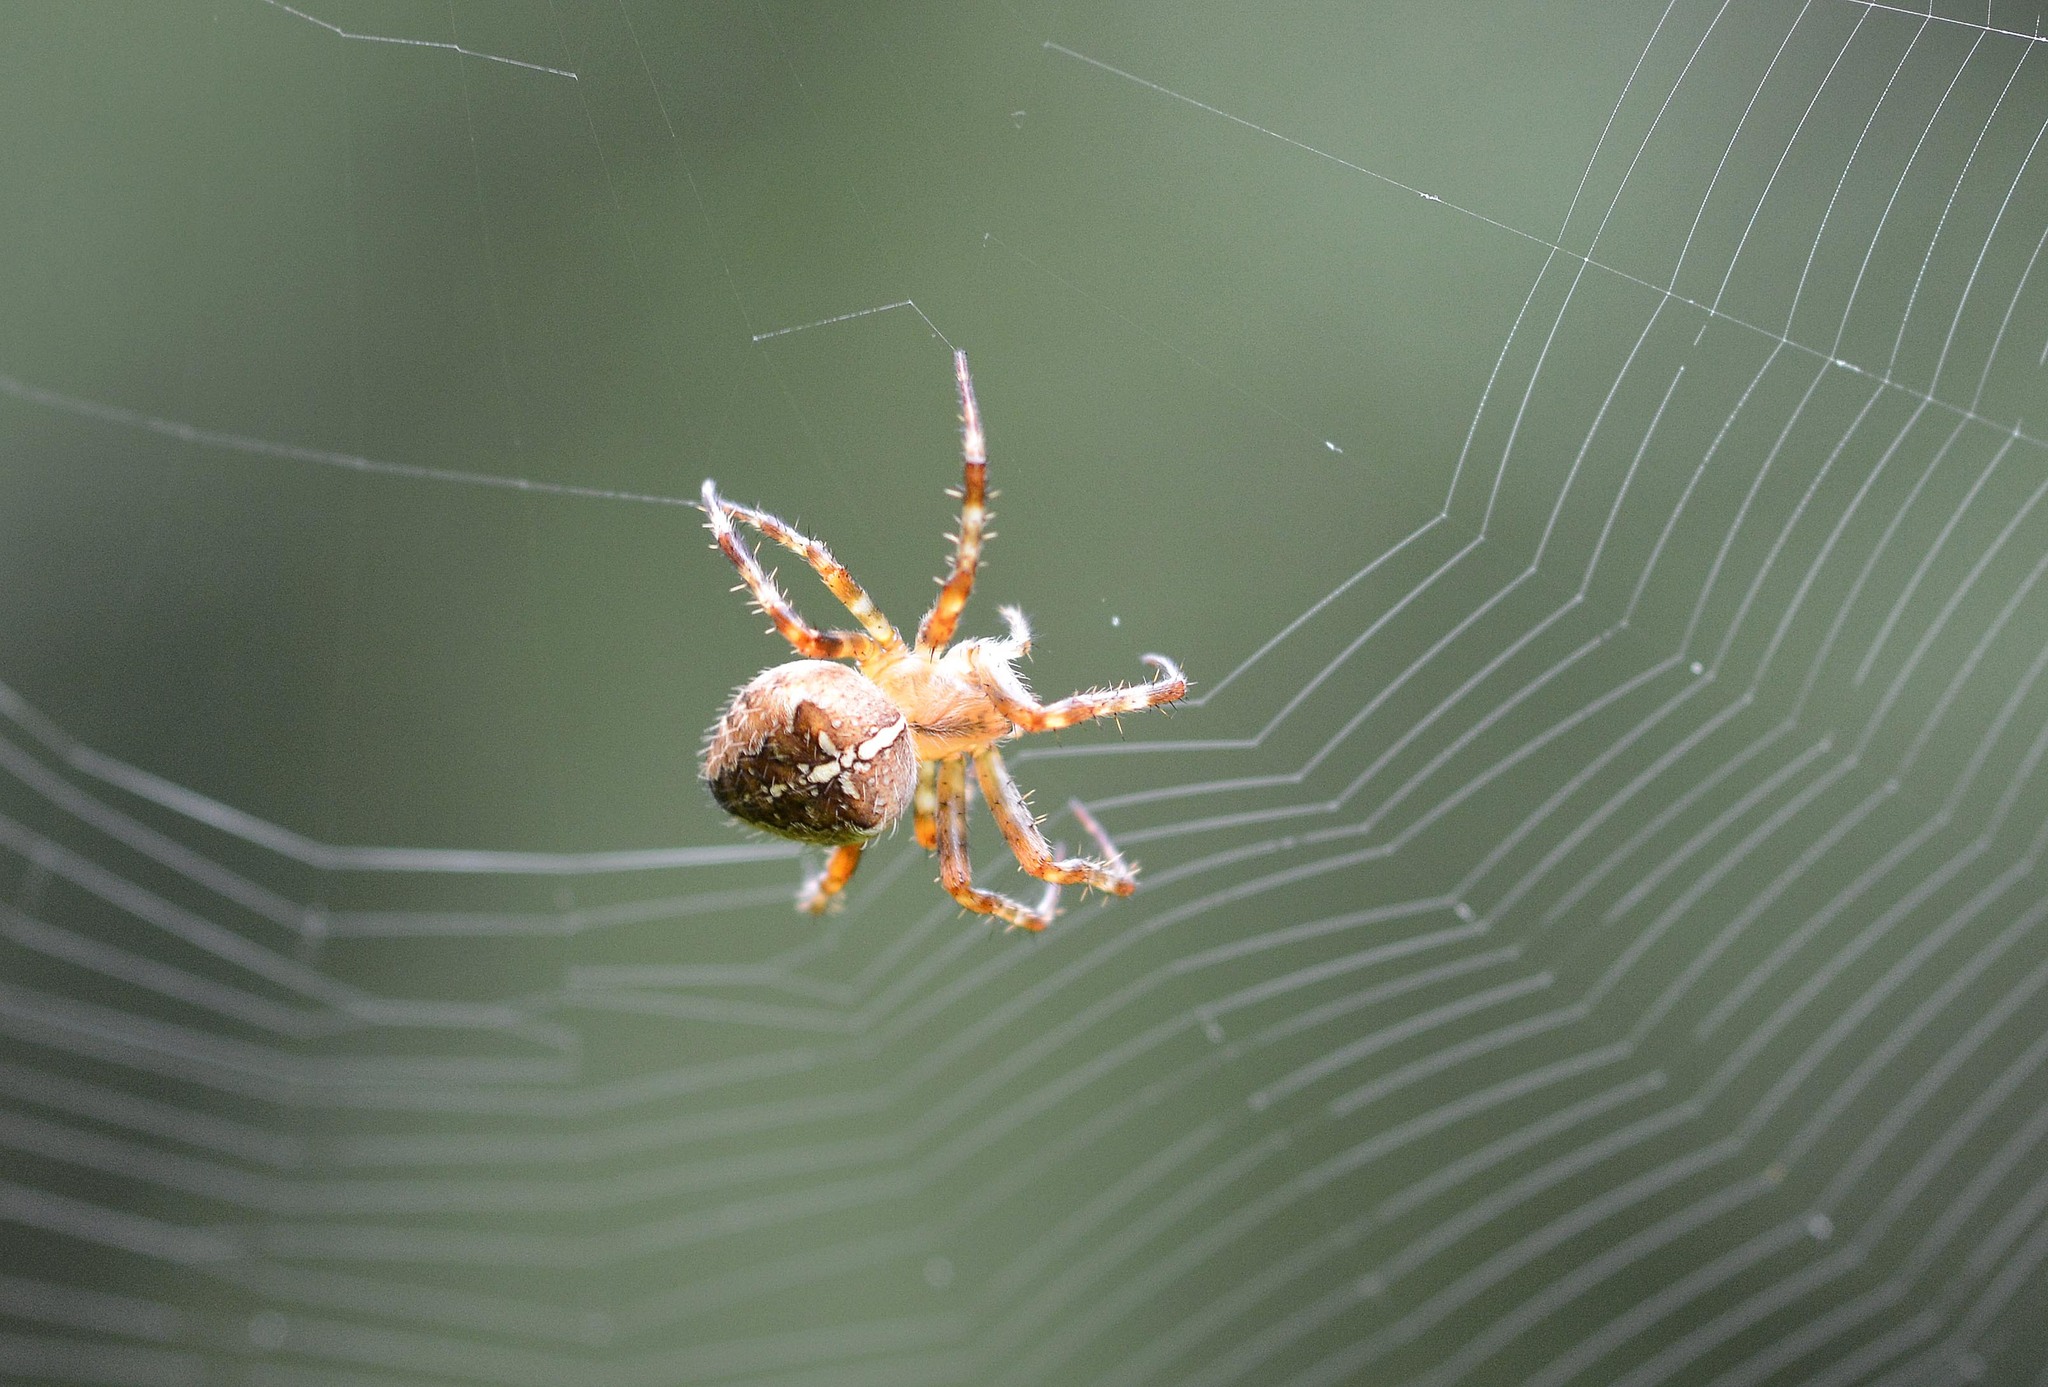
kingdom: Animalia
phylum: Arthropoda
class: Arachnida
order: Araneae
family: Araneidae
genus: Araneus
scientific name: Araneus diadematus
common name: Cross orbweaver
